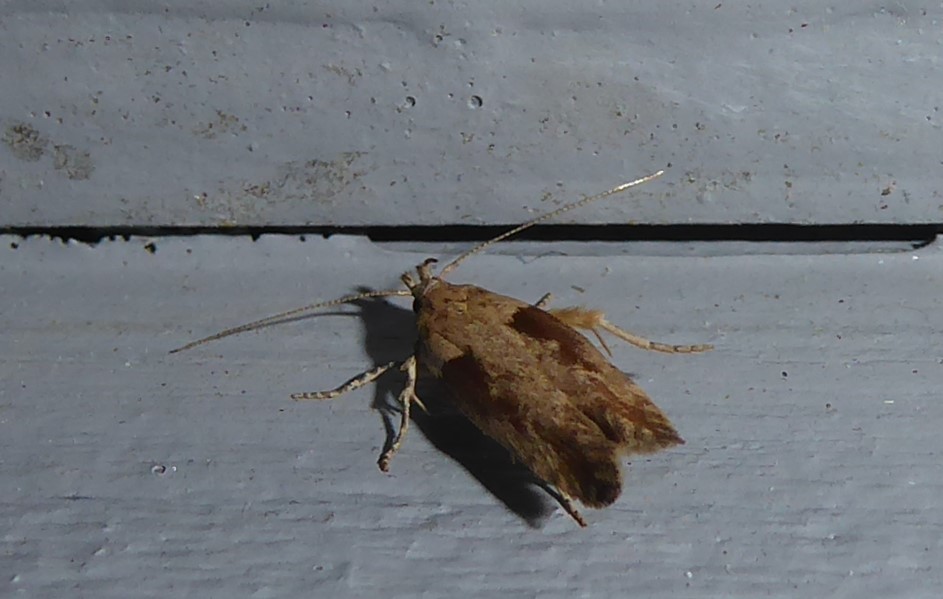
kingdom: Animalia
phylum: Arthropoda
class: Insecta
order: Lepidoptera
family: Gelechiidae
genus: Symmetrischema
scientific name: Symmetrischema tangolias
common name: Moth
